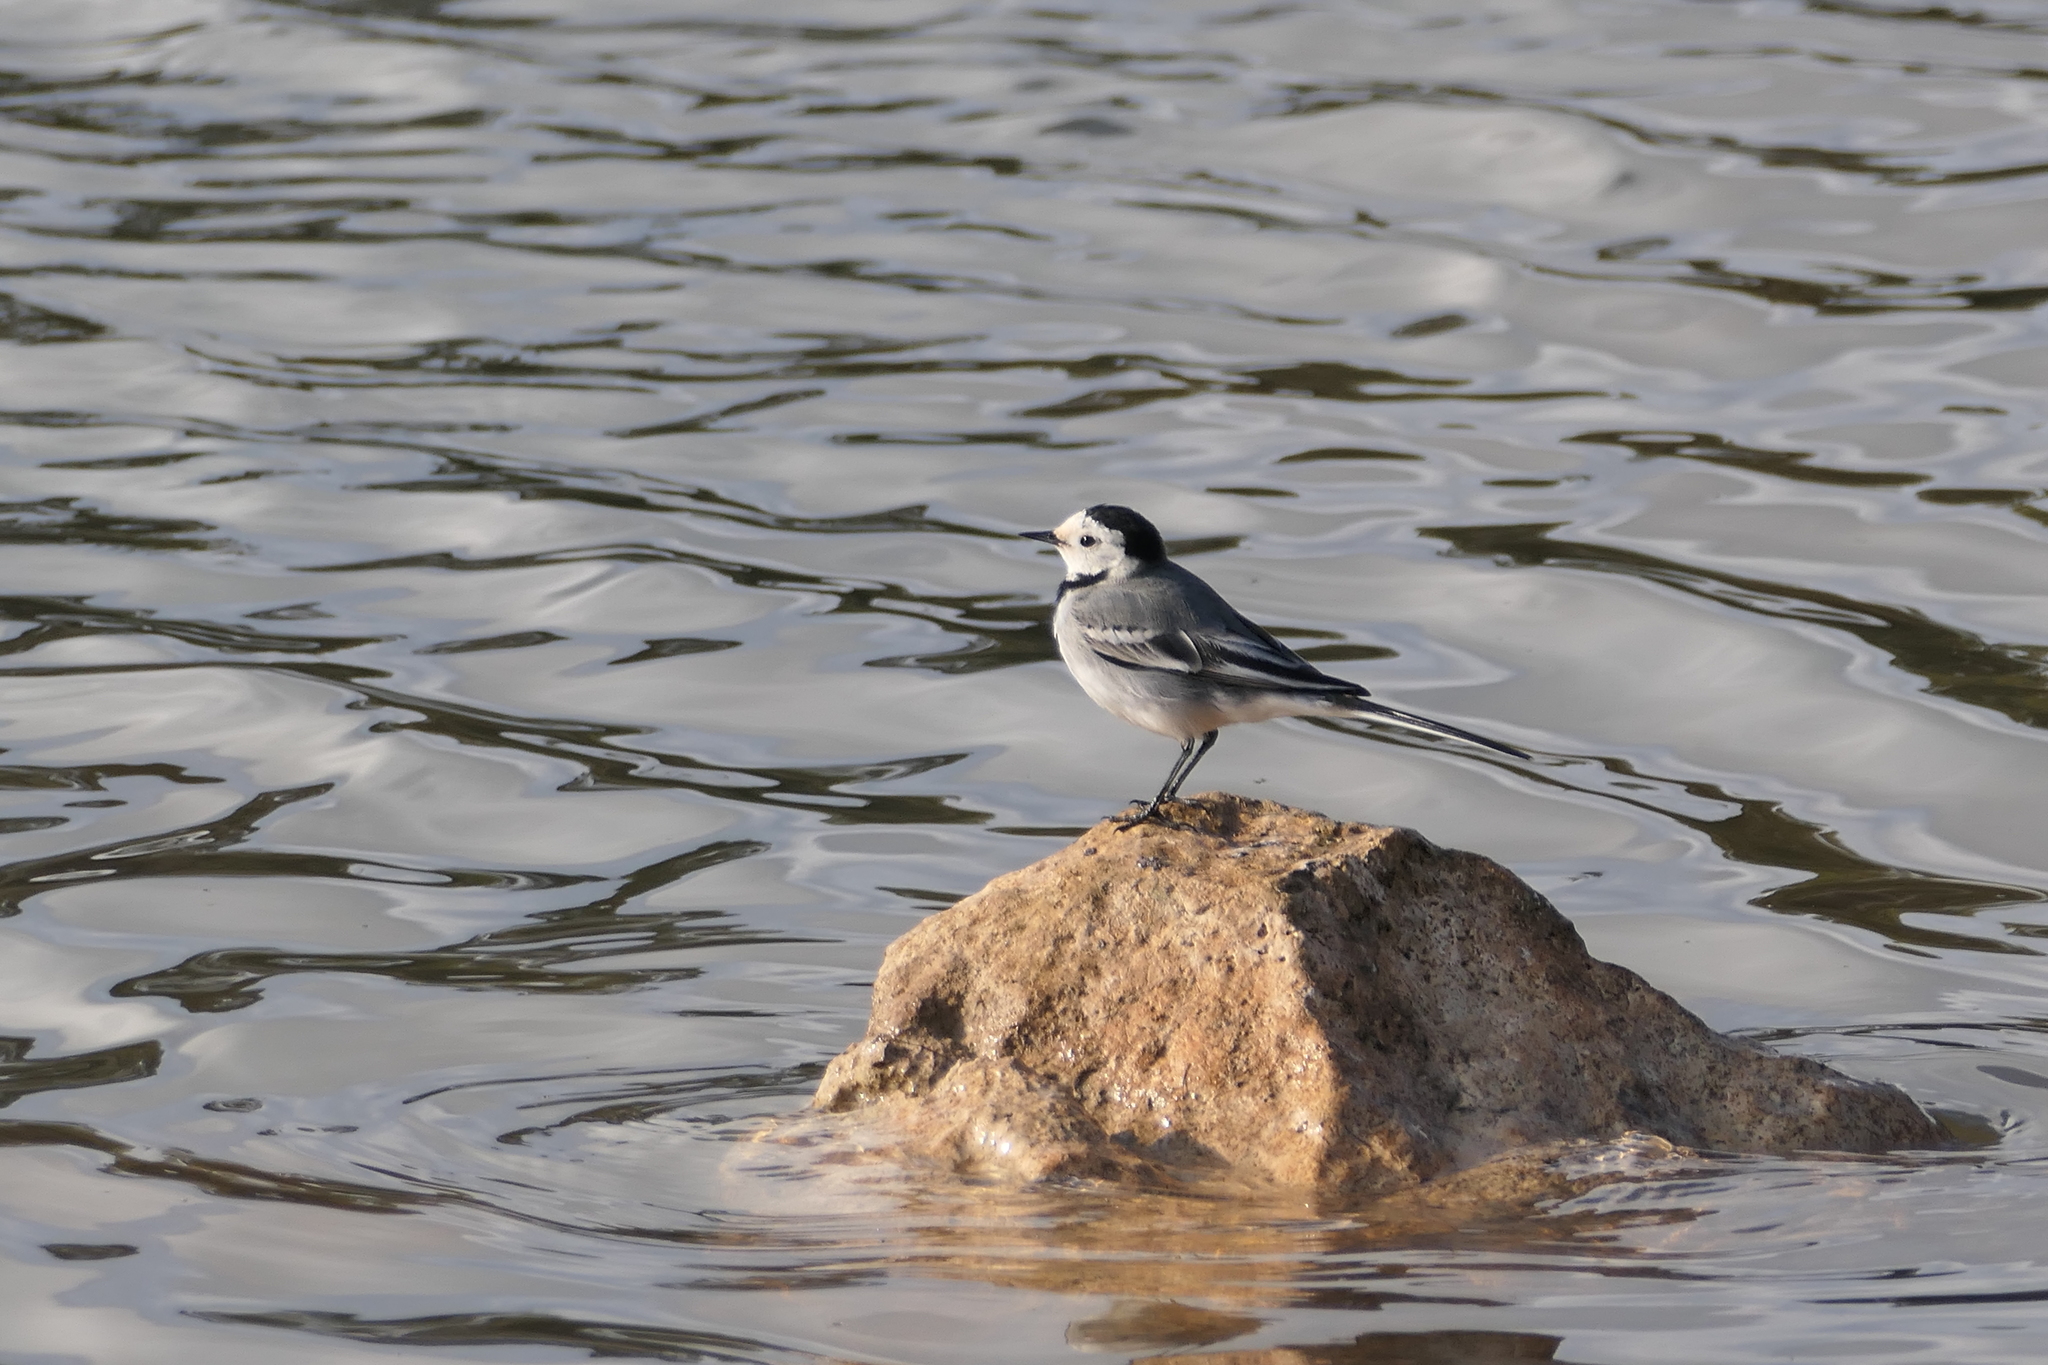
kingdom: Animalia
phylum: Chordata
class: Aves
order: Passeriformes
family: Motacillidae
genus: Motacilla
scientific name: Motacilla alba
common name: White wagtail
